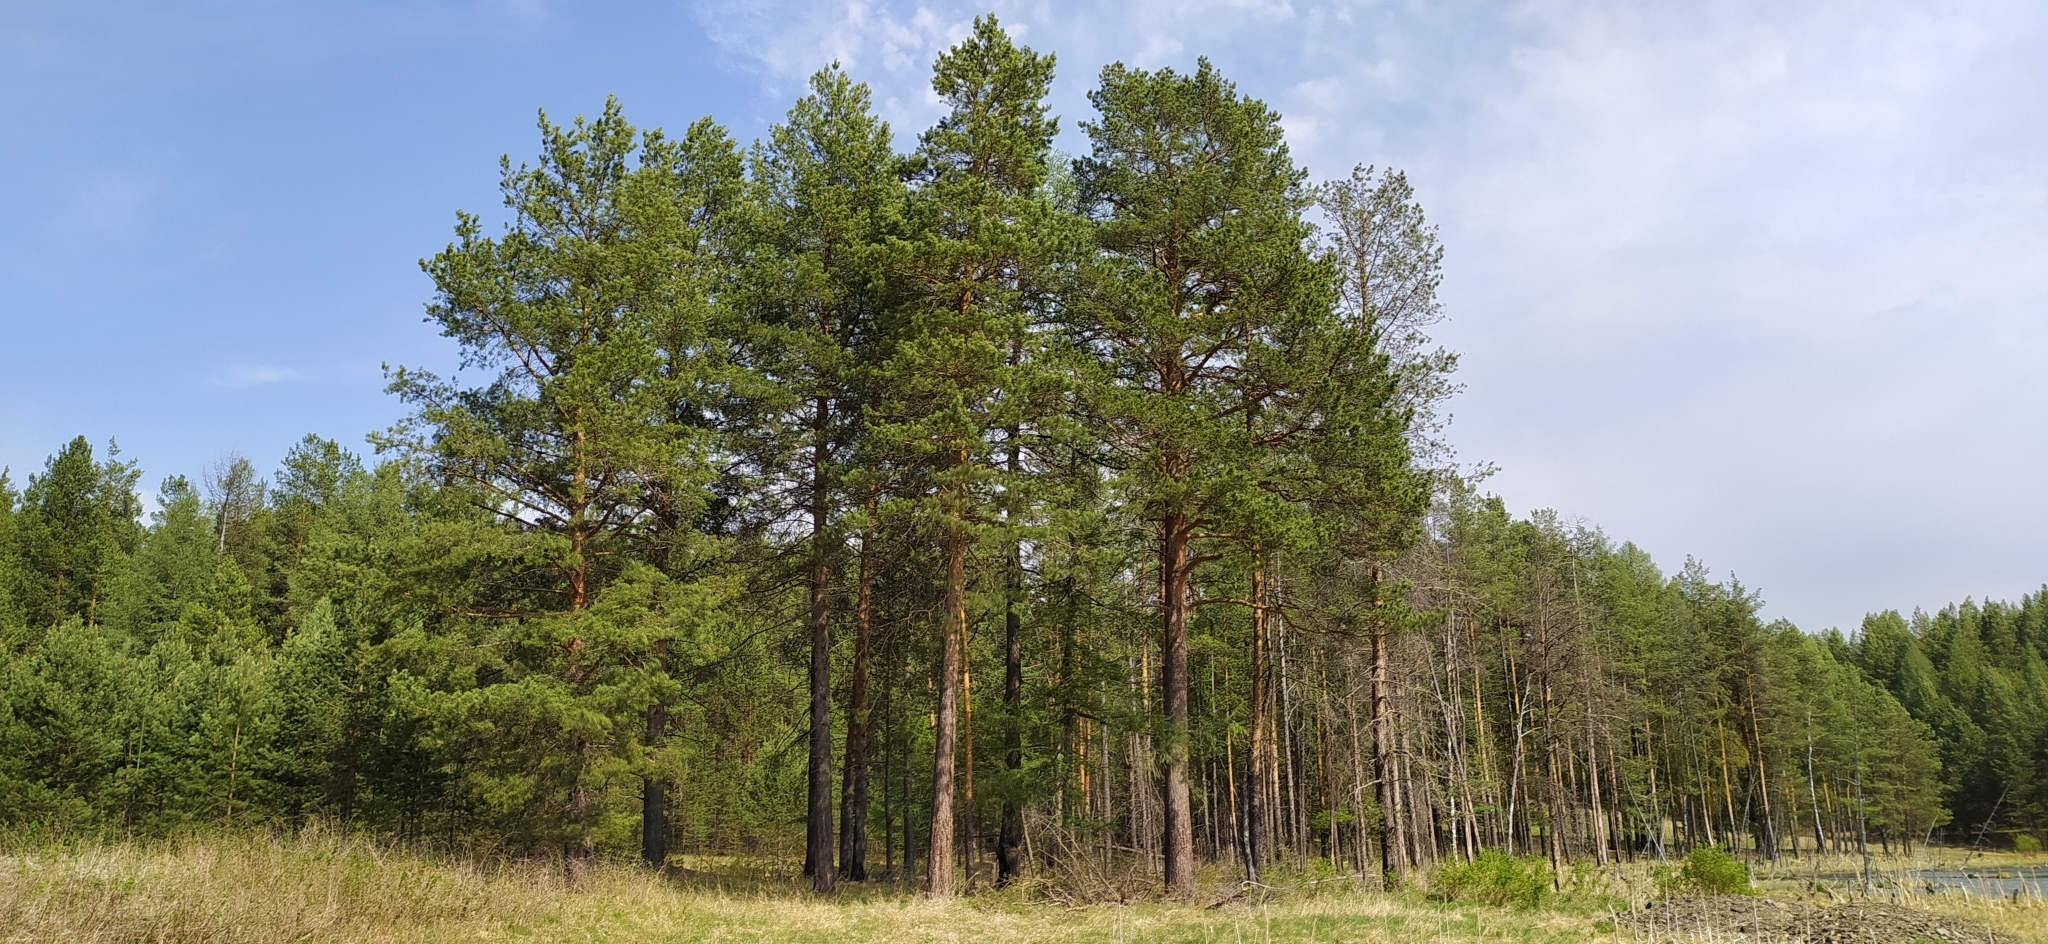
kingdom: Plantae
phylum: Tracheophyta
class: Pinopsida
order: Pinales
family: Pinaceae
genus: Pinus
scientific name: Pinus sylvestris
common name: Scots pine
